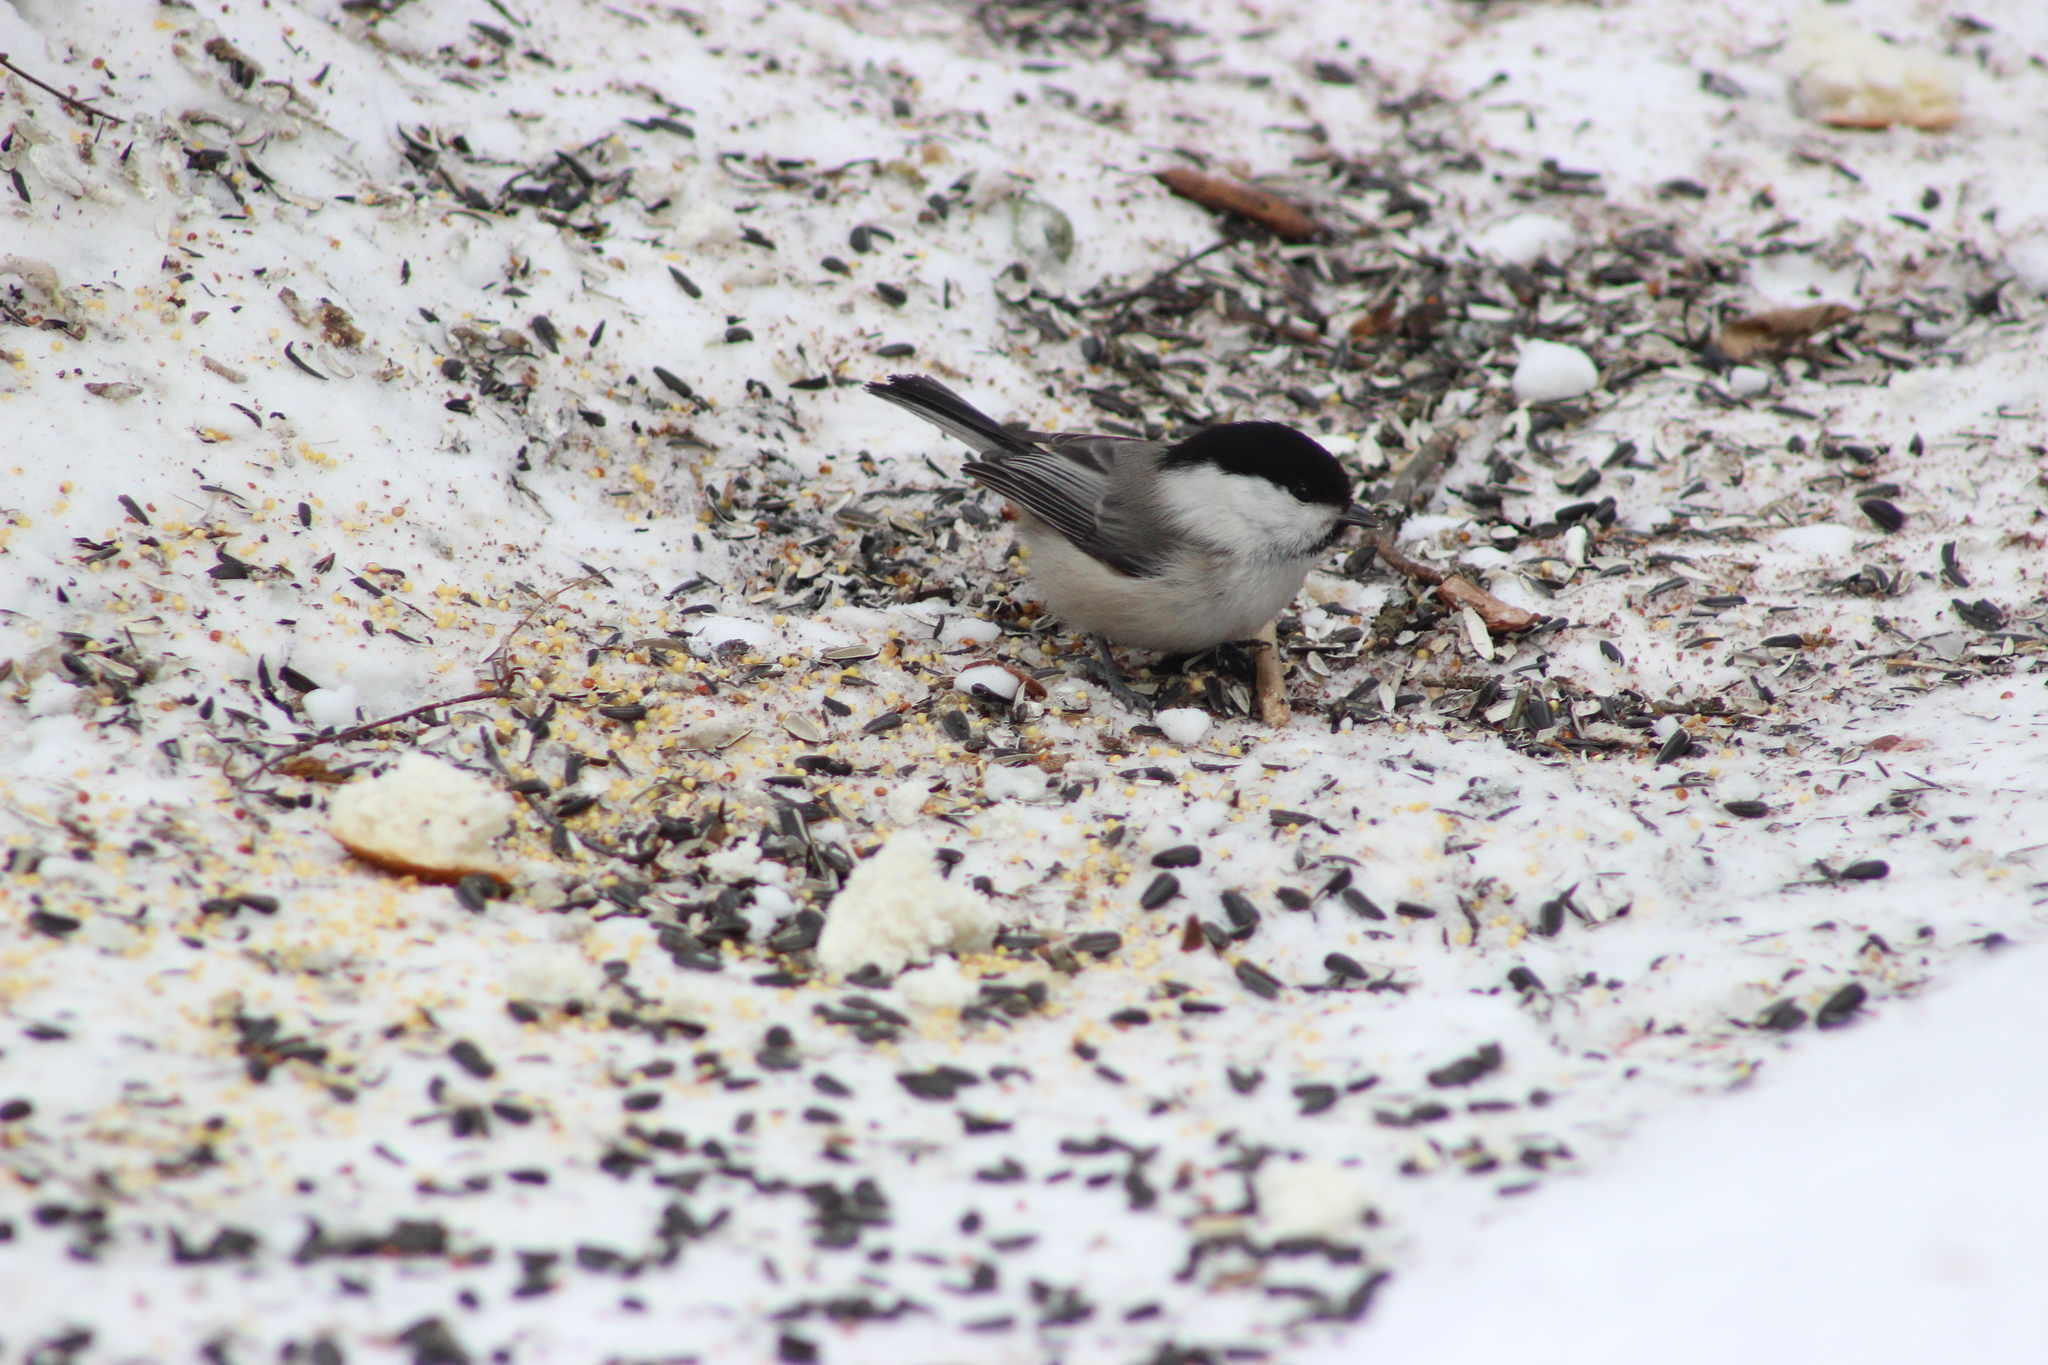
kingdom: Animalia
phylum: Chordata
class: Aves
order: Passeriformes
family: Paridae
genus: Poecile
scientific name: Poecile montanus
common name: Willow tit
